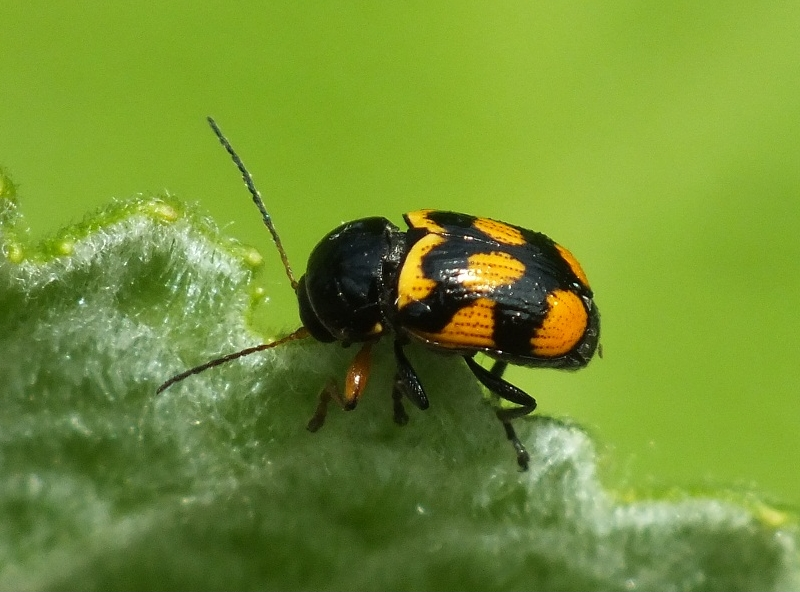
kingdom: Animalia
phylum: Arthropoda
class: Insecta
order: Coleoptera
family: Chrysomelidae
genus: Cryptocephalus
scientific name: Cryptocephalus anticus
